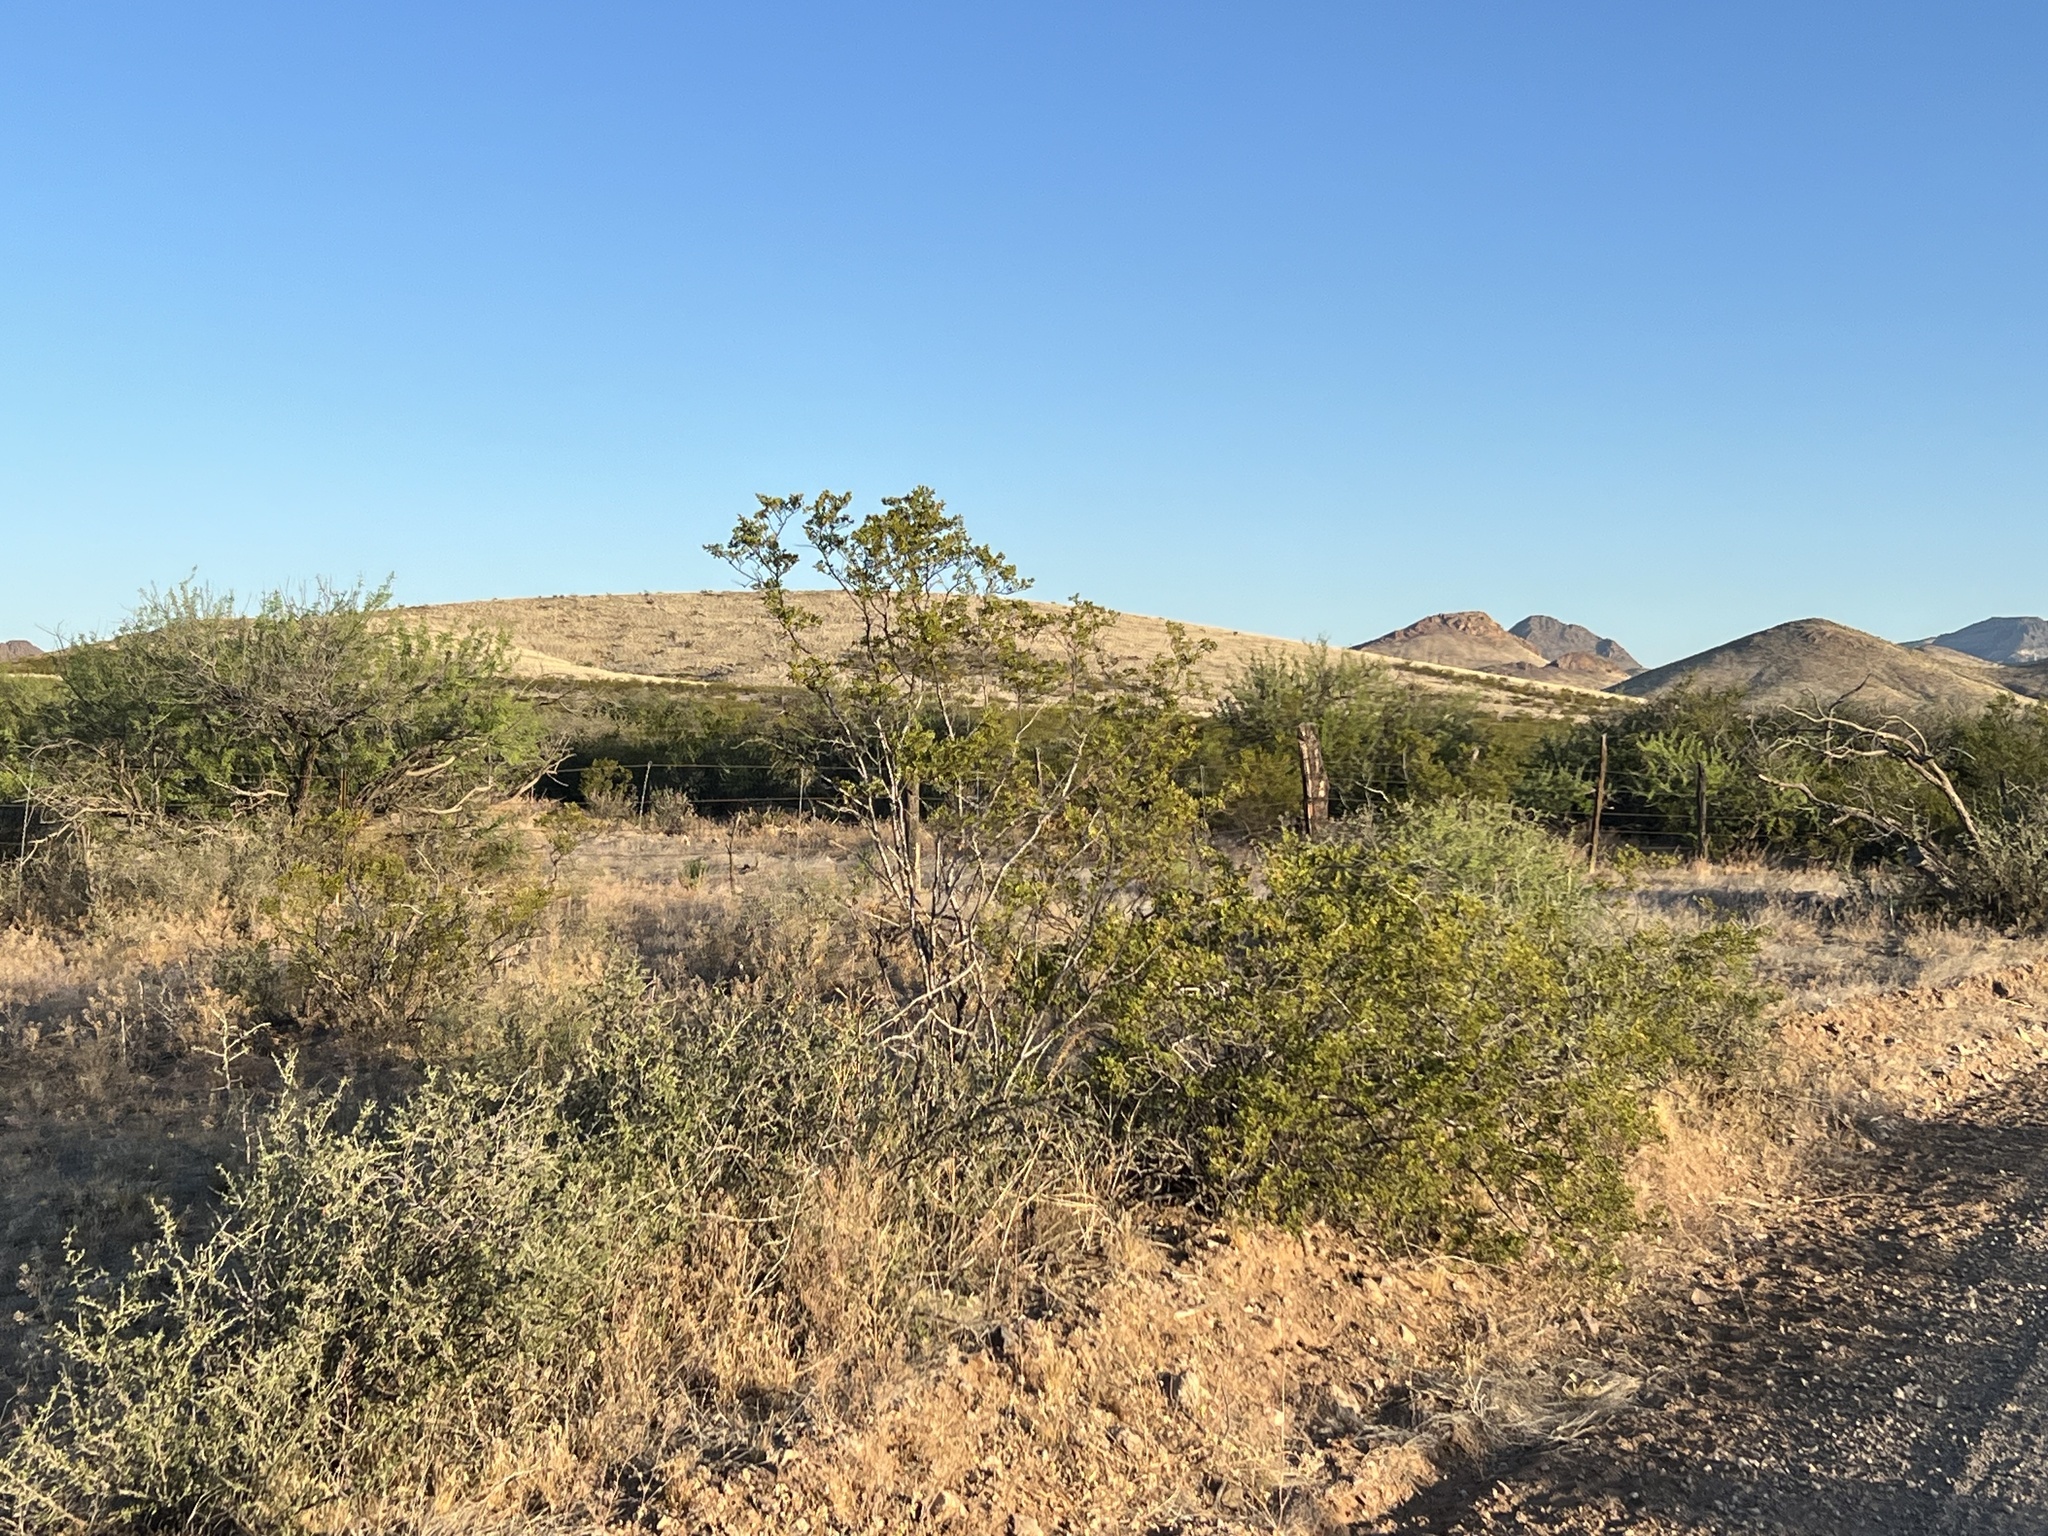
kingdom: Plantae
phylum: Tracheophyta
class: Magnoliopsida
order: Zygophyllales
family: Zygophyllaceae
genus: Larrea
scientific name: Larrea tridentata
